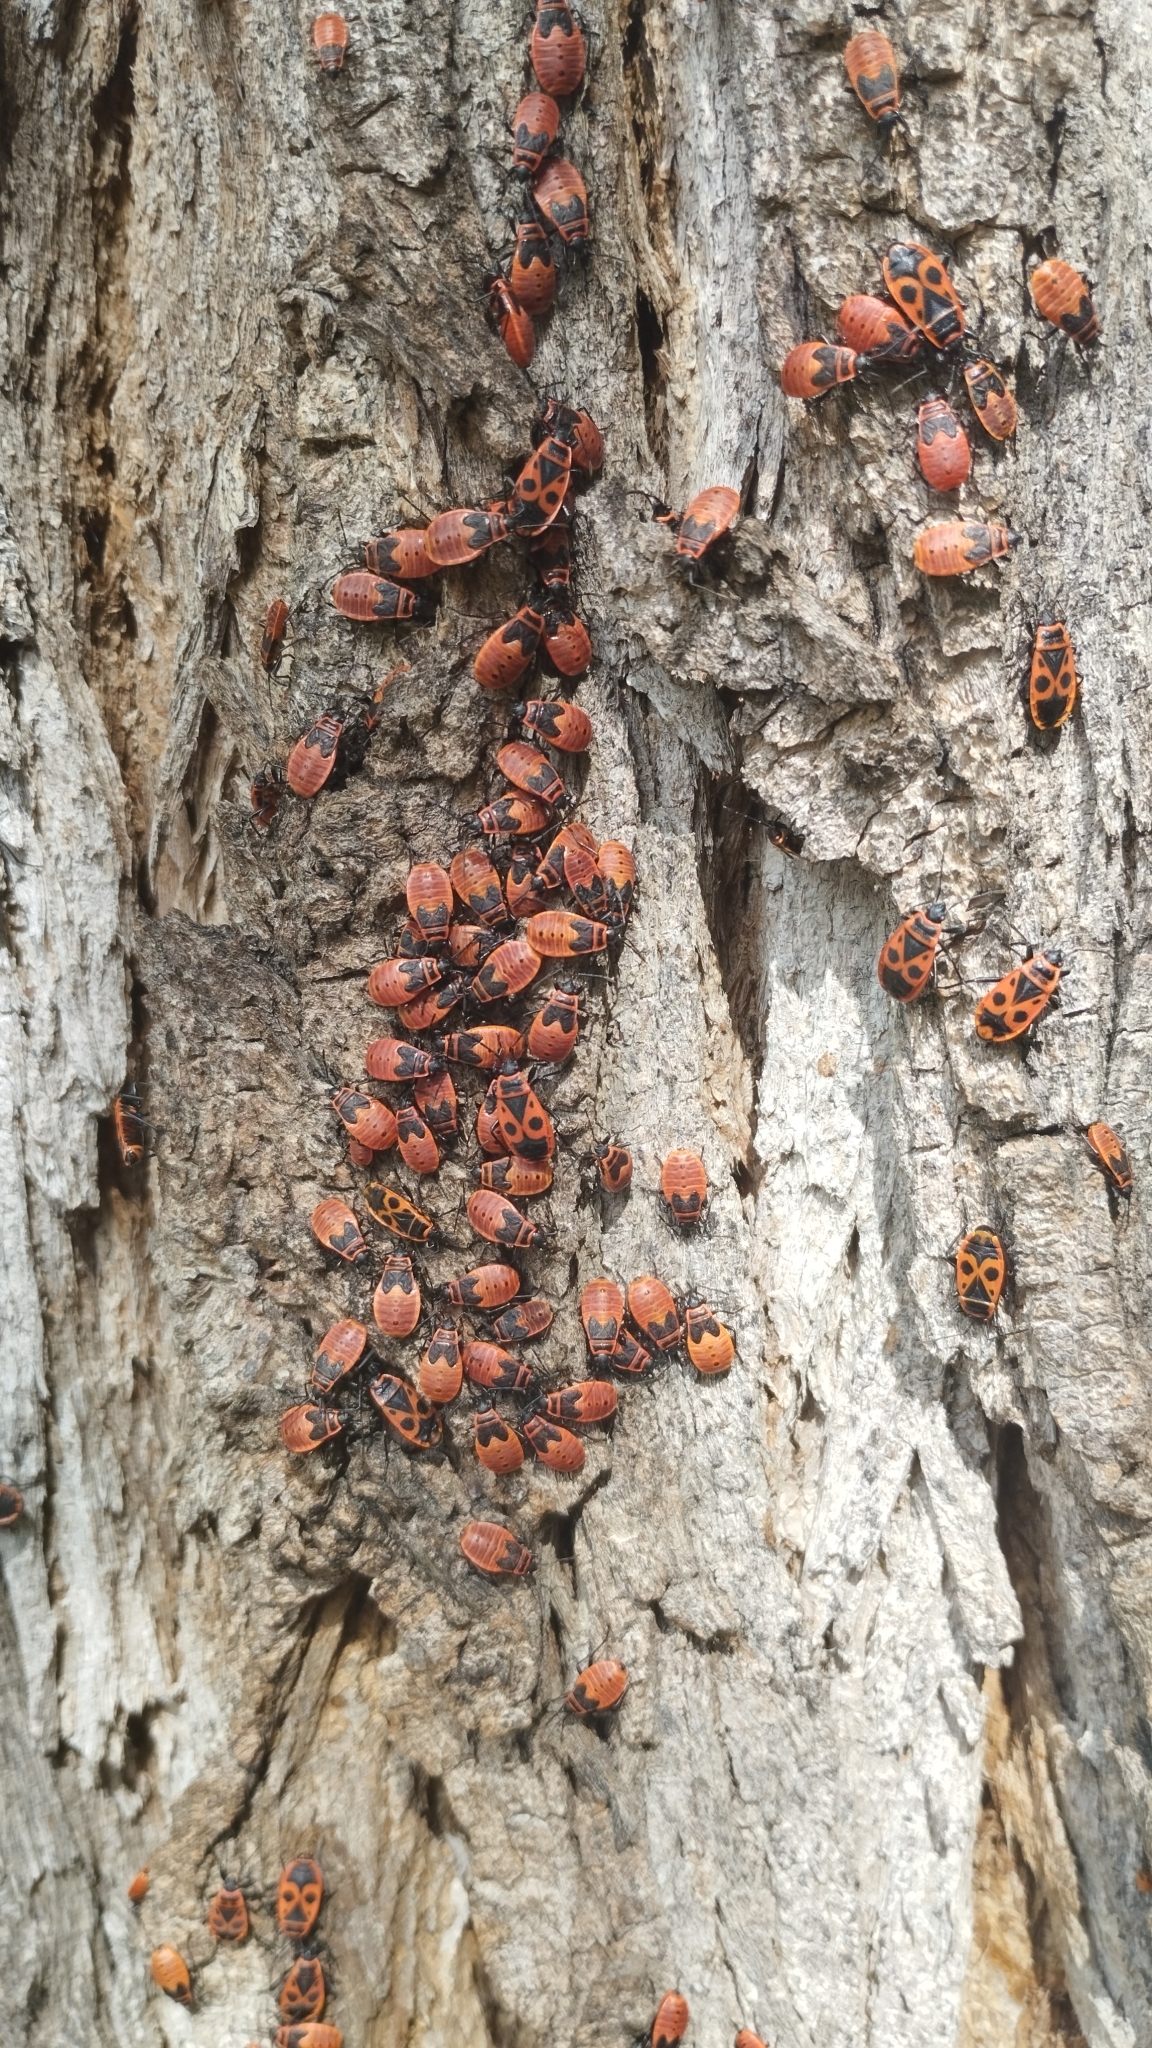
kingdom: Animalia
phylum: Arthropoda
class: Insecta
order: Hemiptera
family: Pyrrhocoridae
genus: Pyrrhocoris
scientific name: Pyrrhocoris apterus
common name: Firebug
